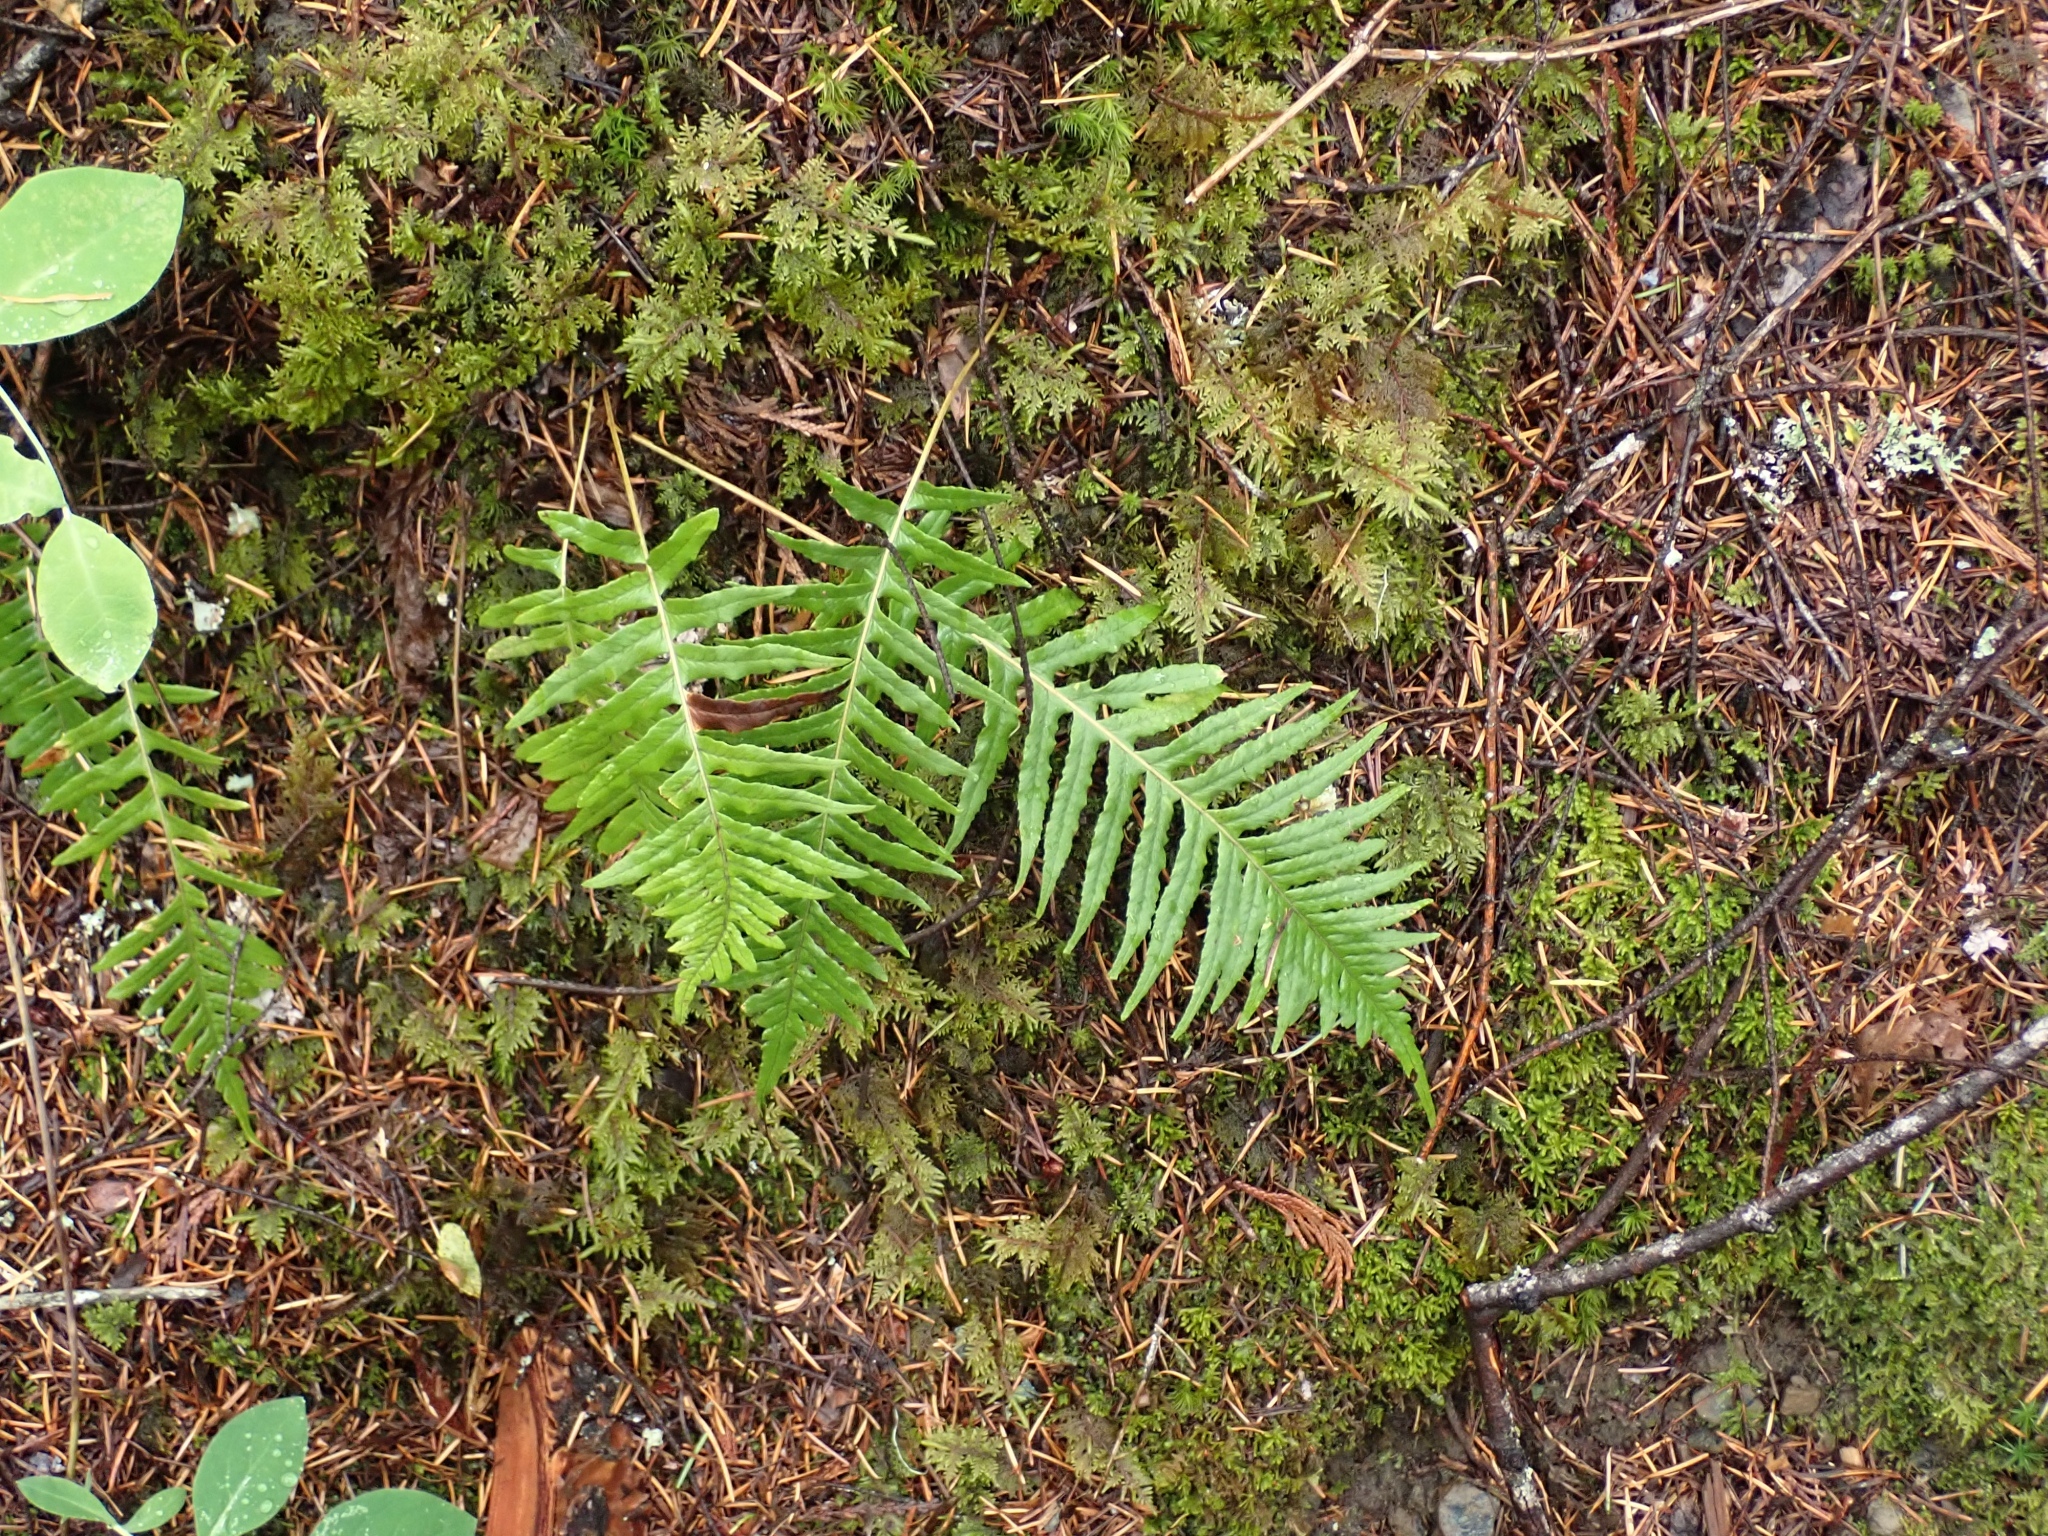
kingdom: Plantae
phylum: Tracheophyta
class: Polypodiopsida
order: Polypodiales
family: Polypodiaceae
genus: Polypodium
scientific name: Polypodium glycyrrhiza
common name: Licorice fern
